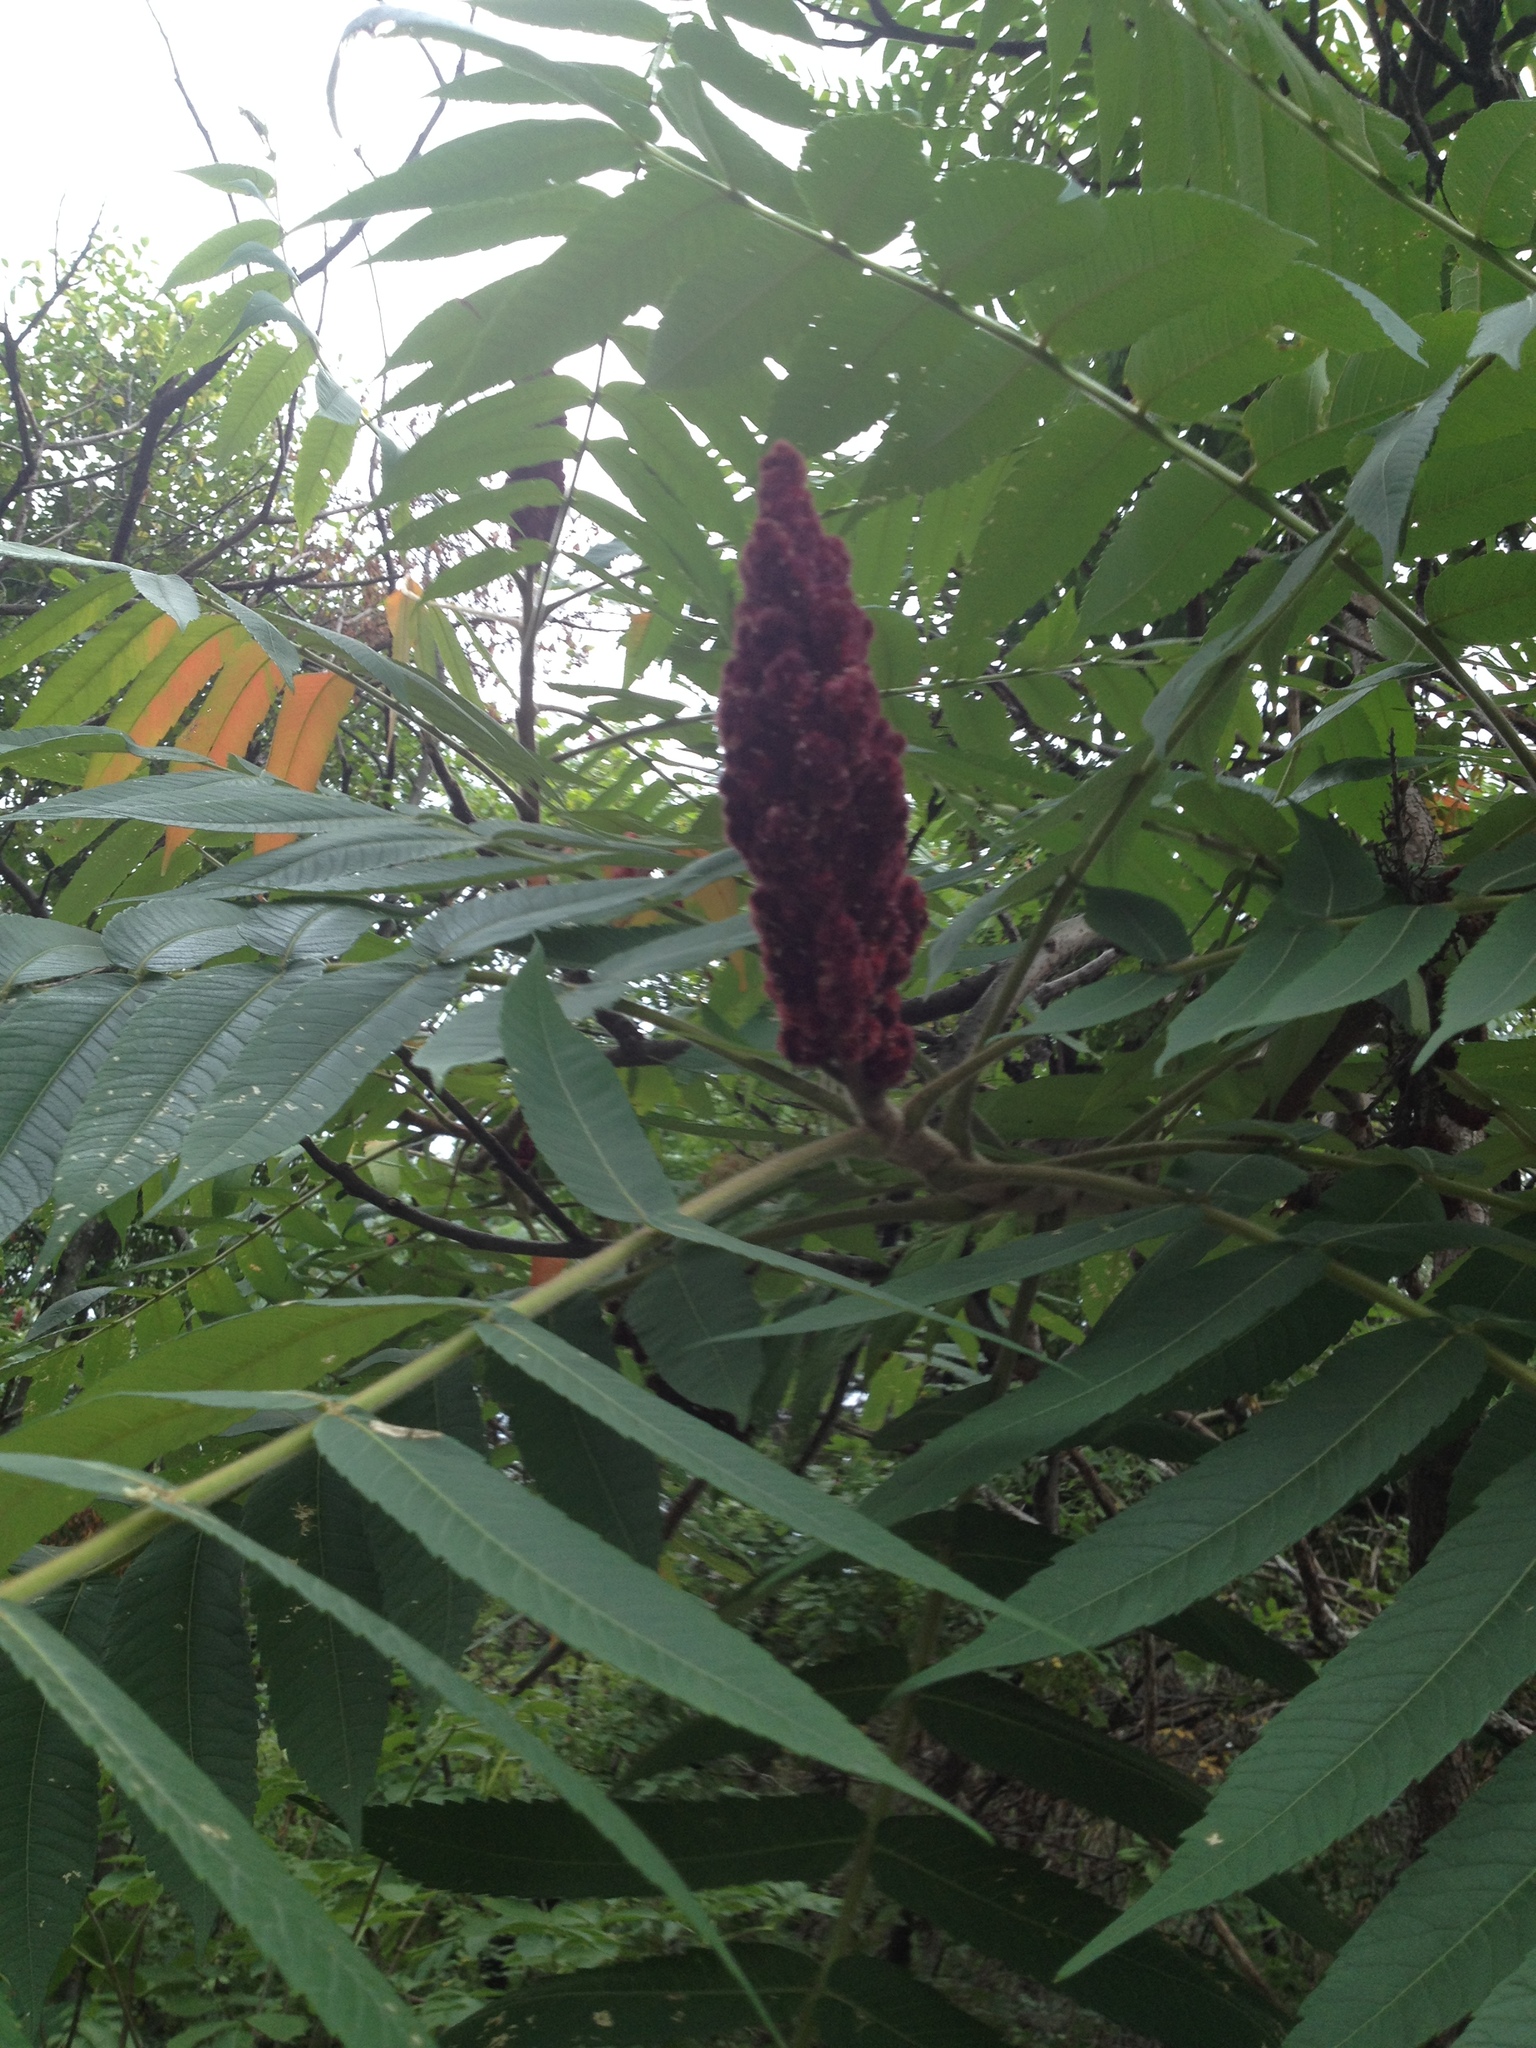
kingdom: Plantae
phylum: Tracheophyta
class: Magnoliopsida
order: Sapindales
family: Anacardiaceae
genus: Rhus
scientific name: Rhus typhina
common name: Staghorn sumac
